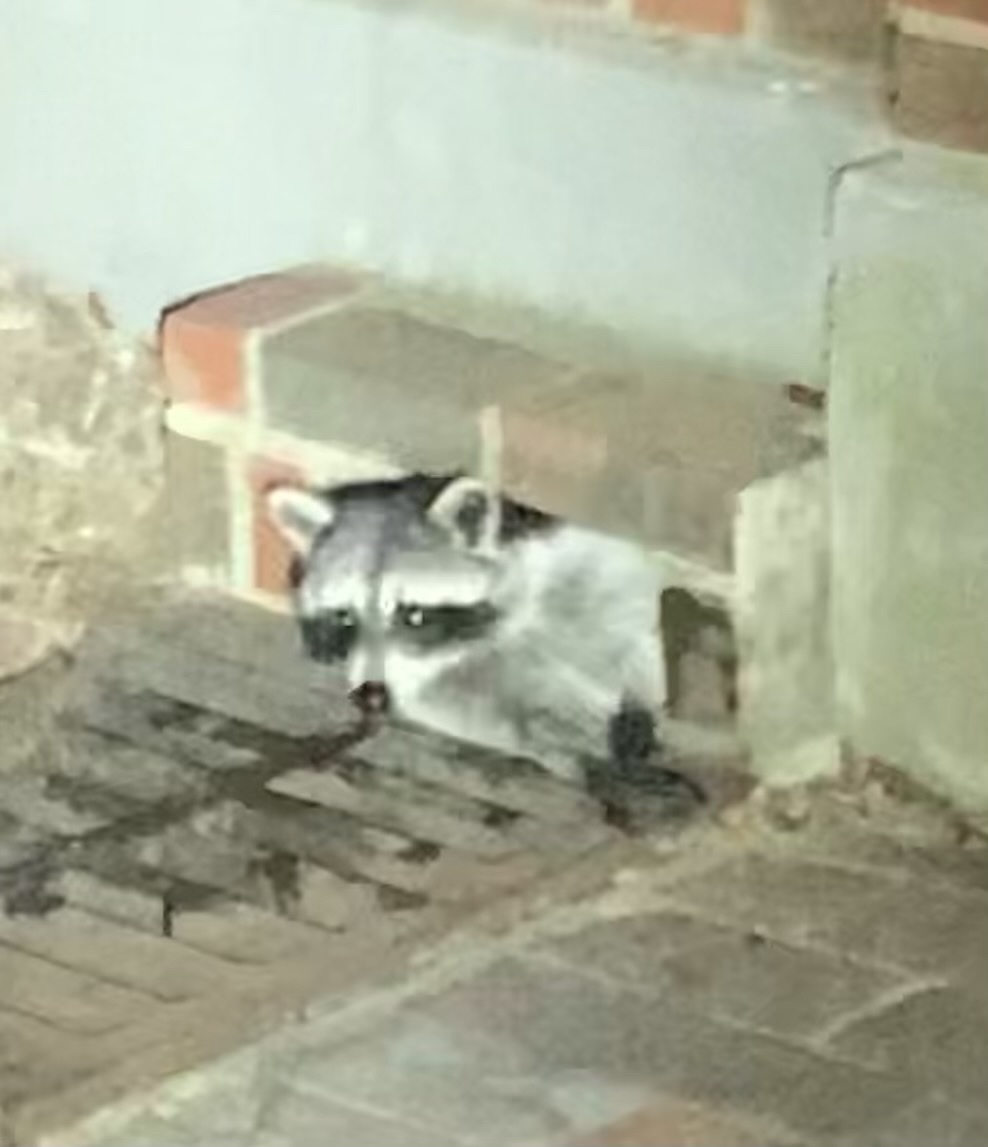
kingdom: Animalia
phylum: Chordata
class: Mammalia
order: Carnivora
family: Procyonidae
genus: Procyon
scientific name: Procyon lotor
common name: Raccoon
